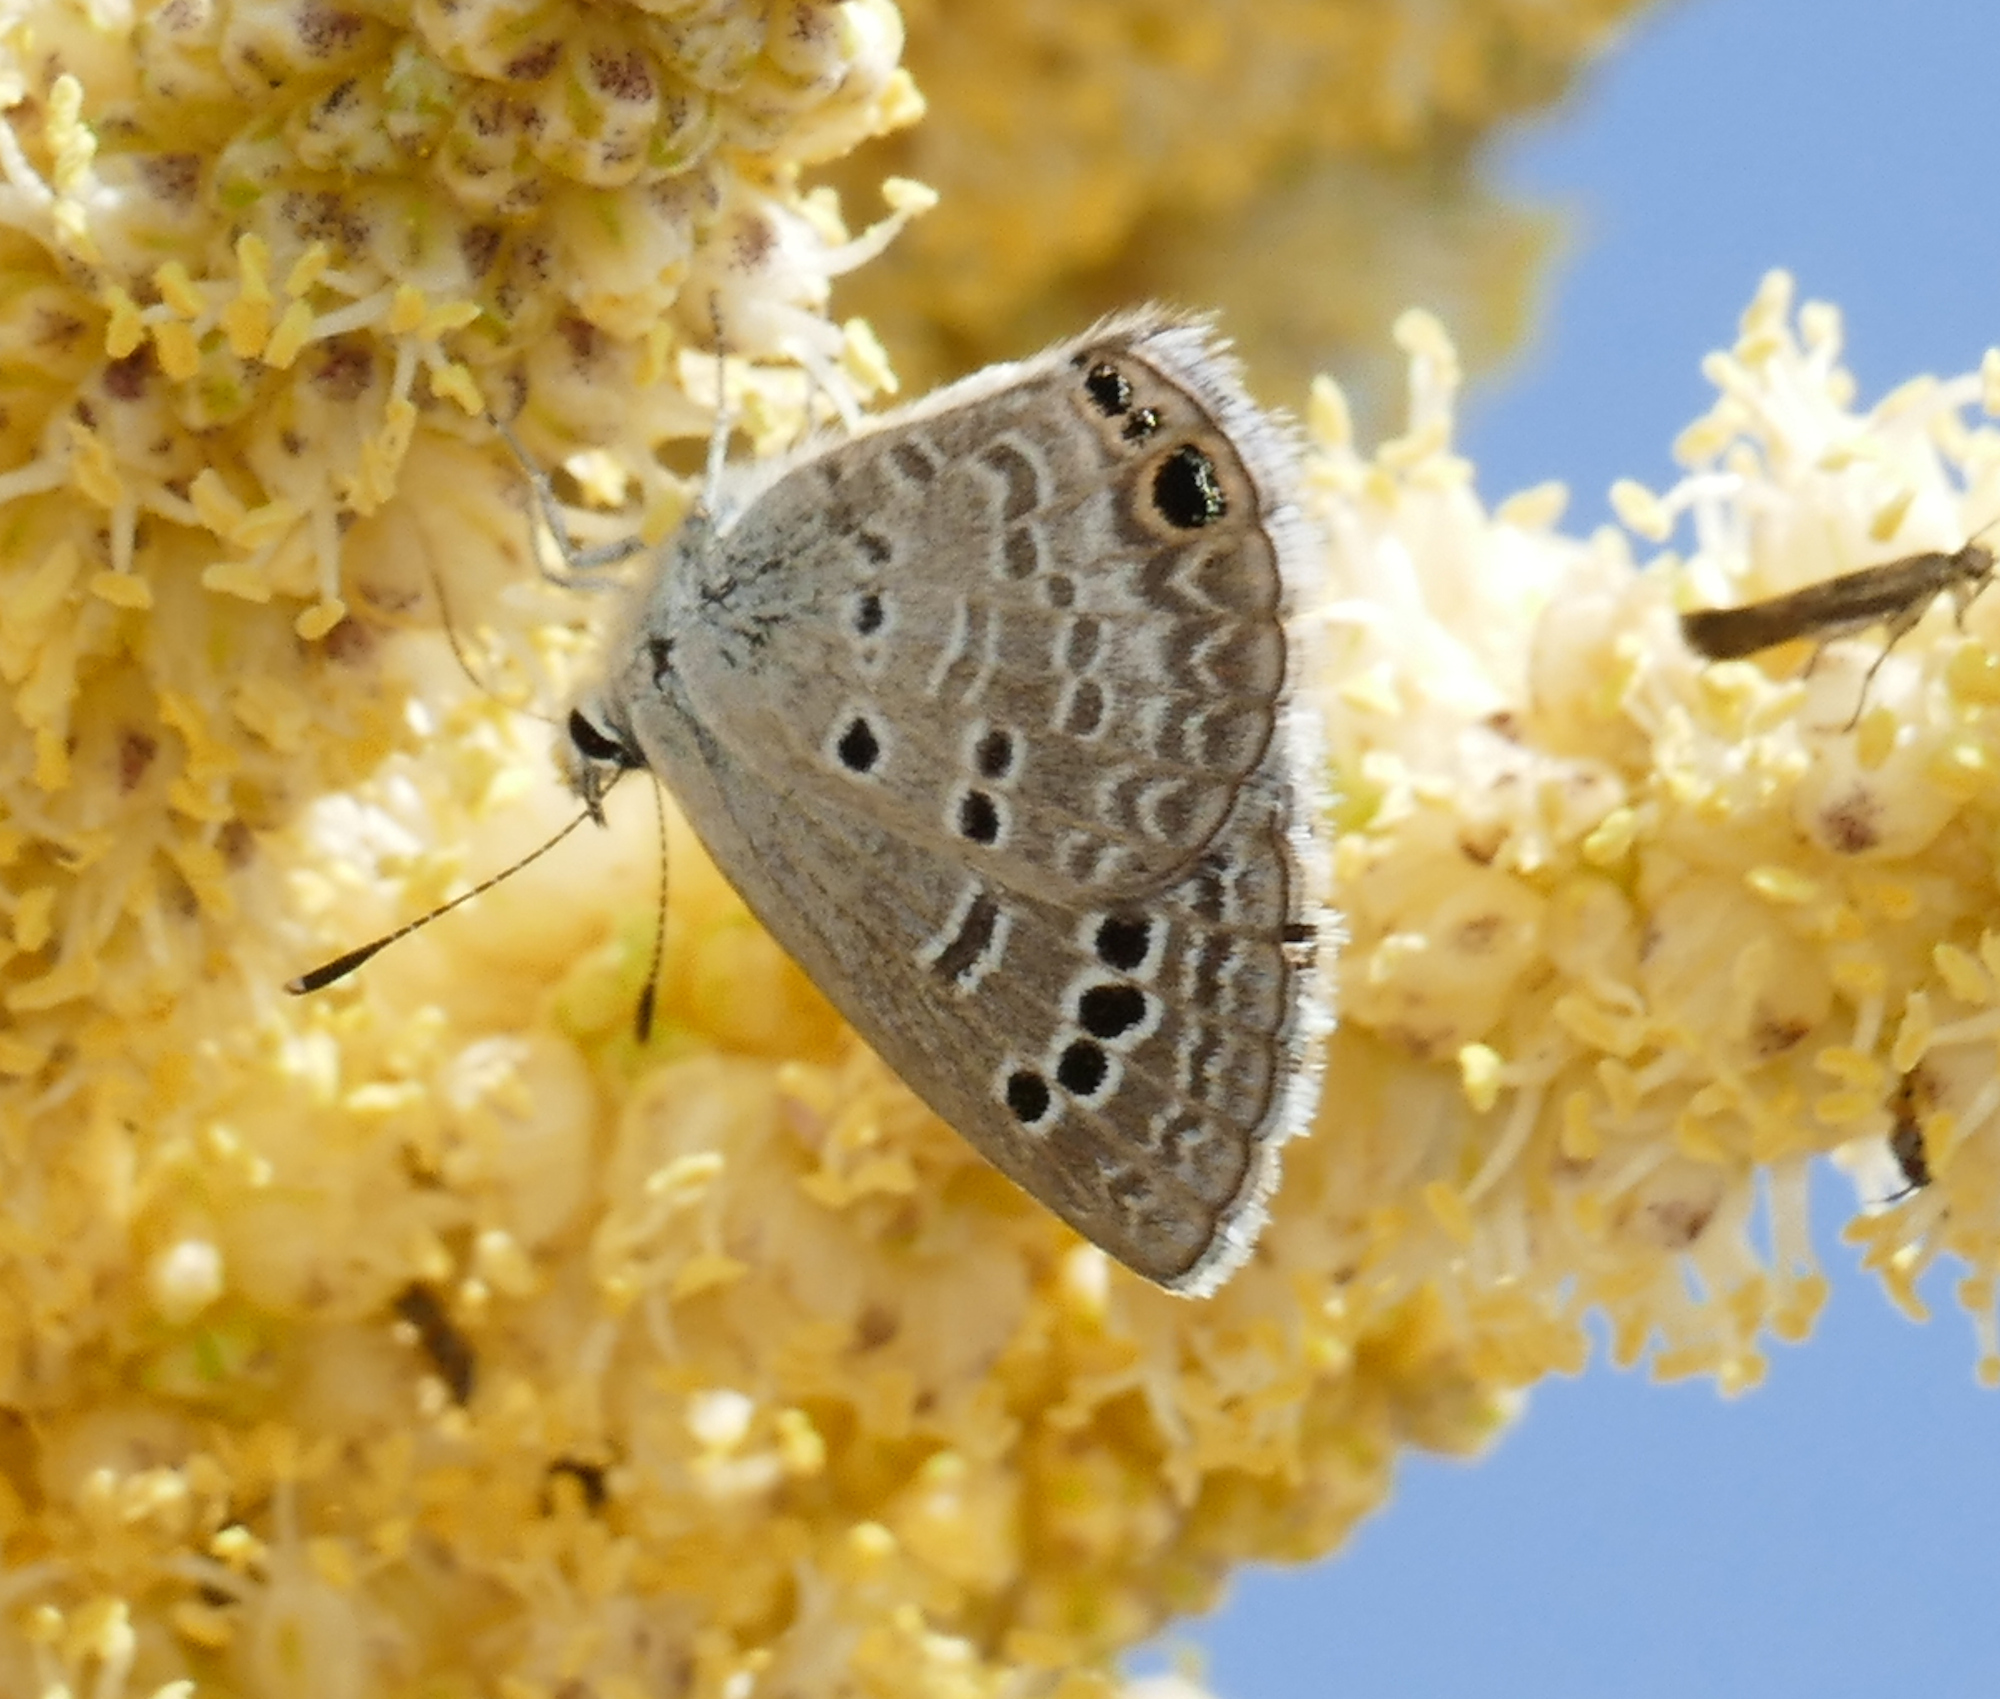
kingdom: Animalia
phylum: Arthropoda
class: Insecta
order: Lepidoptera
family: Lycaenidae
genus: Echinargus
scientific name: Echinargus isola
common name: Reakirt's blue
